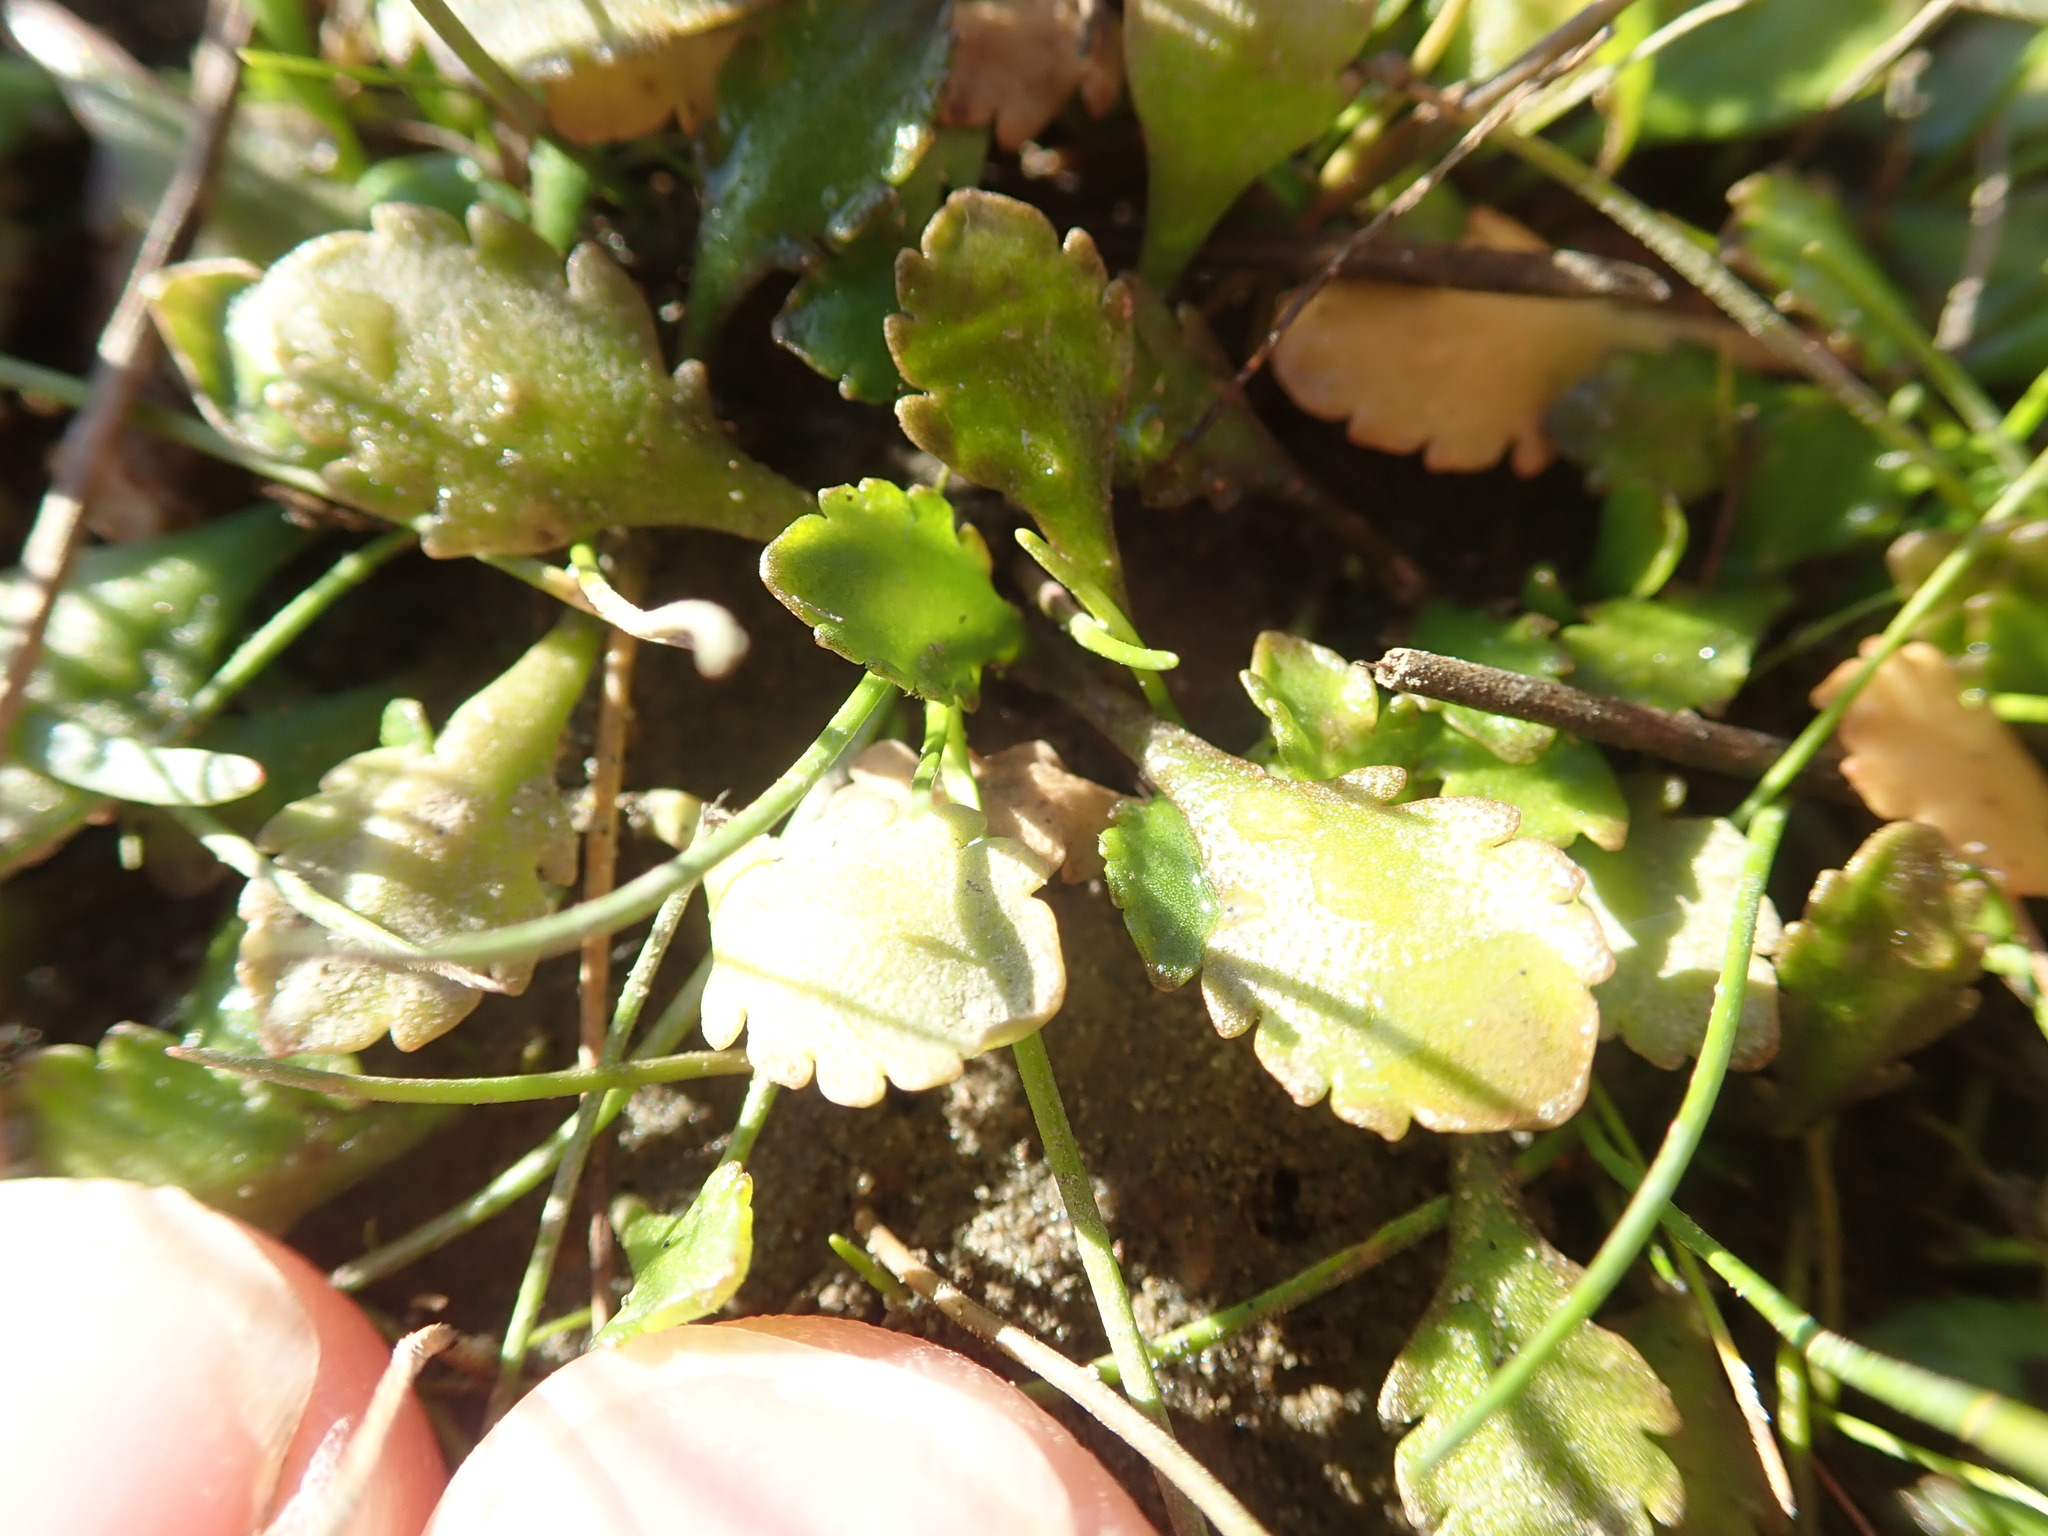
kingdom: Plantae
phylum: Tracheophyta
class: Magnoliopsida
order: Asterales
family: Asteraceae
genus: Leptinella
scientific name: Leptinella dioica
